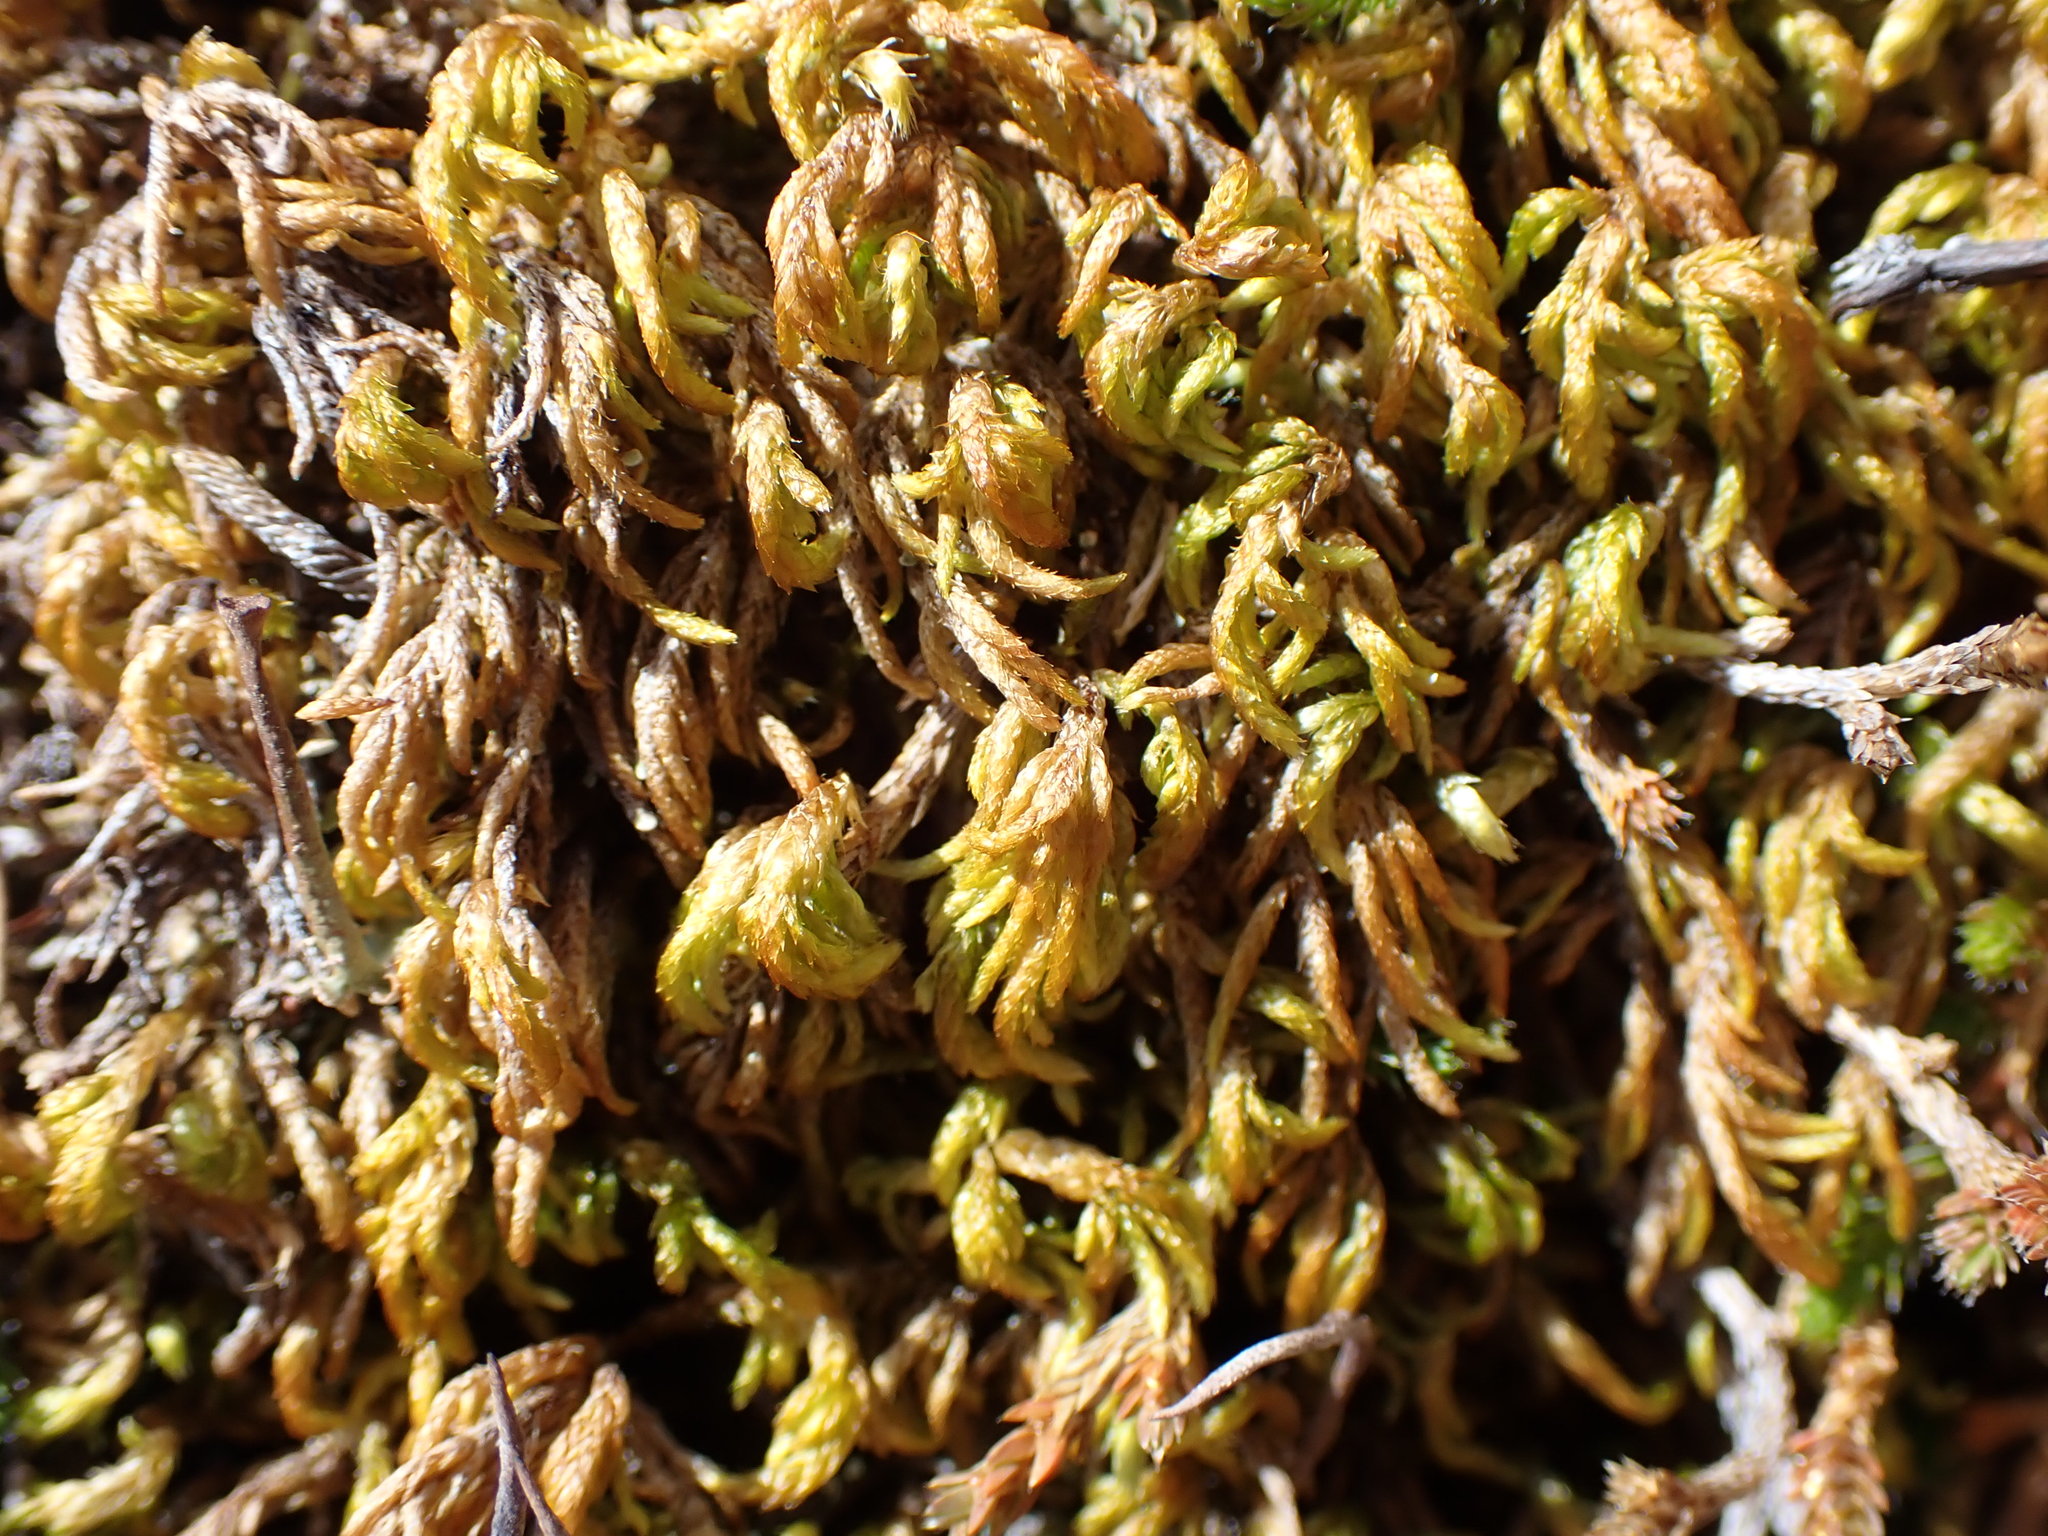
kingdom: Plantae
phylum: Bryophyta
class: Bryopsida
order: Hypnales
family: Lembophyllaceae
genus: Nogopterium
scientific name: Nogopterium gracile
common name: Bird's-foot wing-moss
